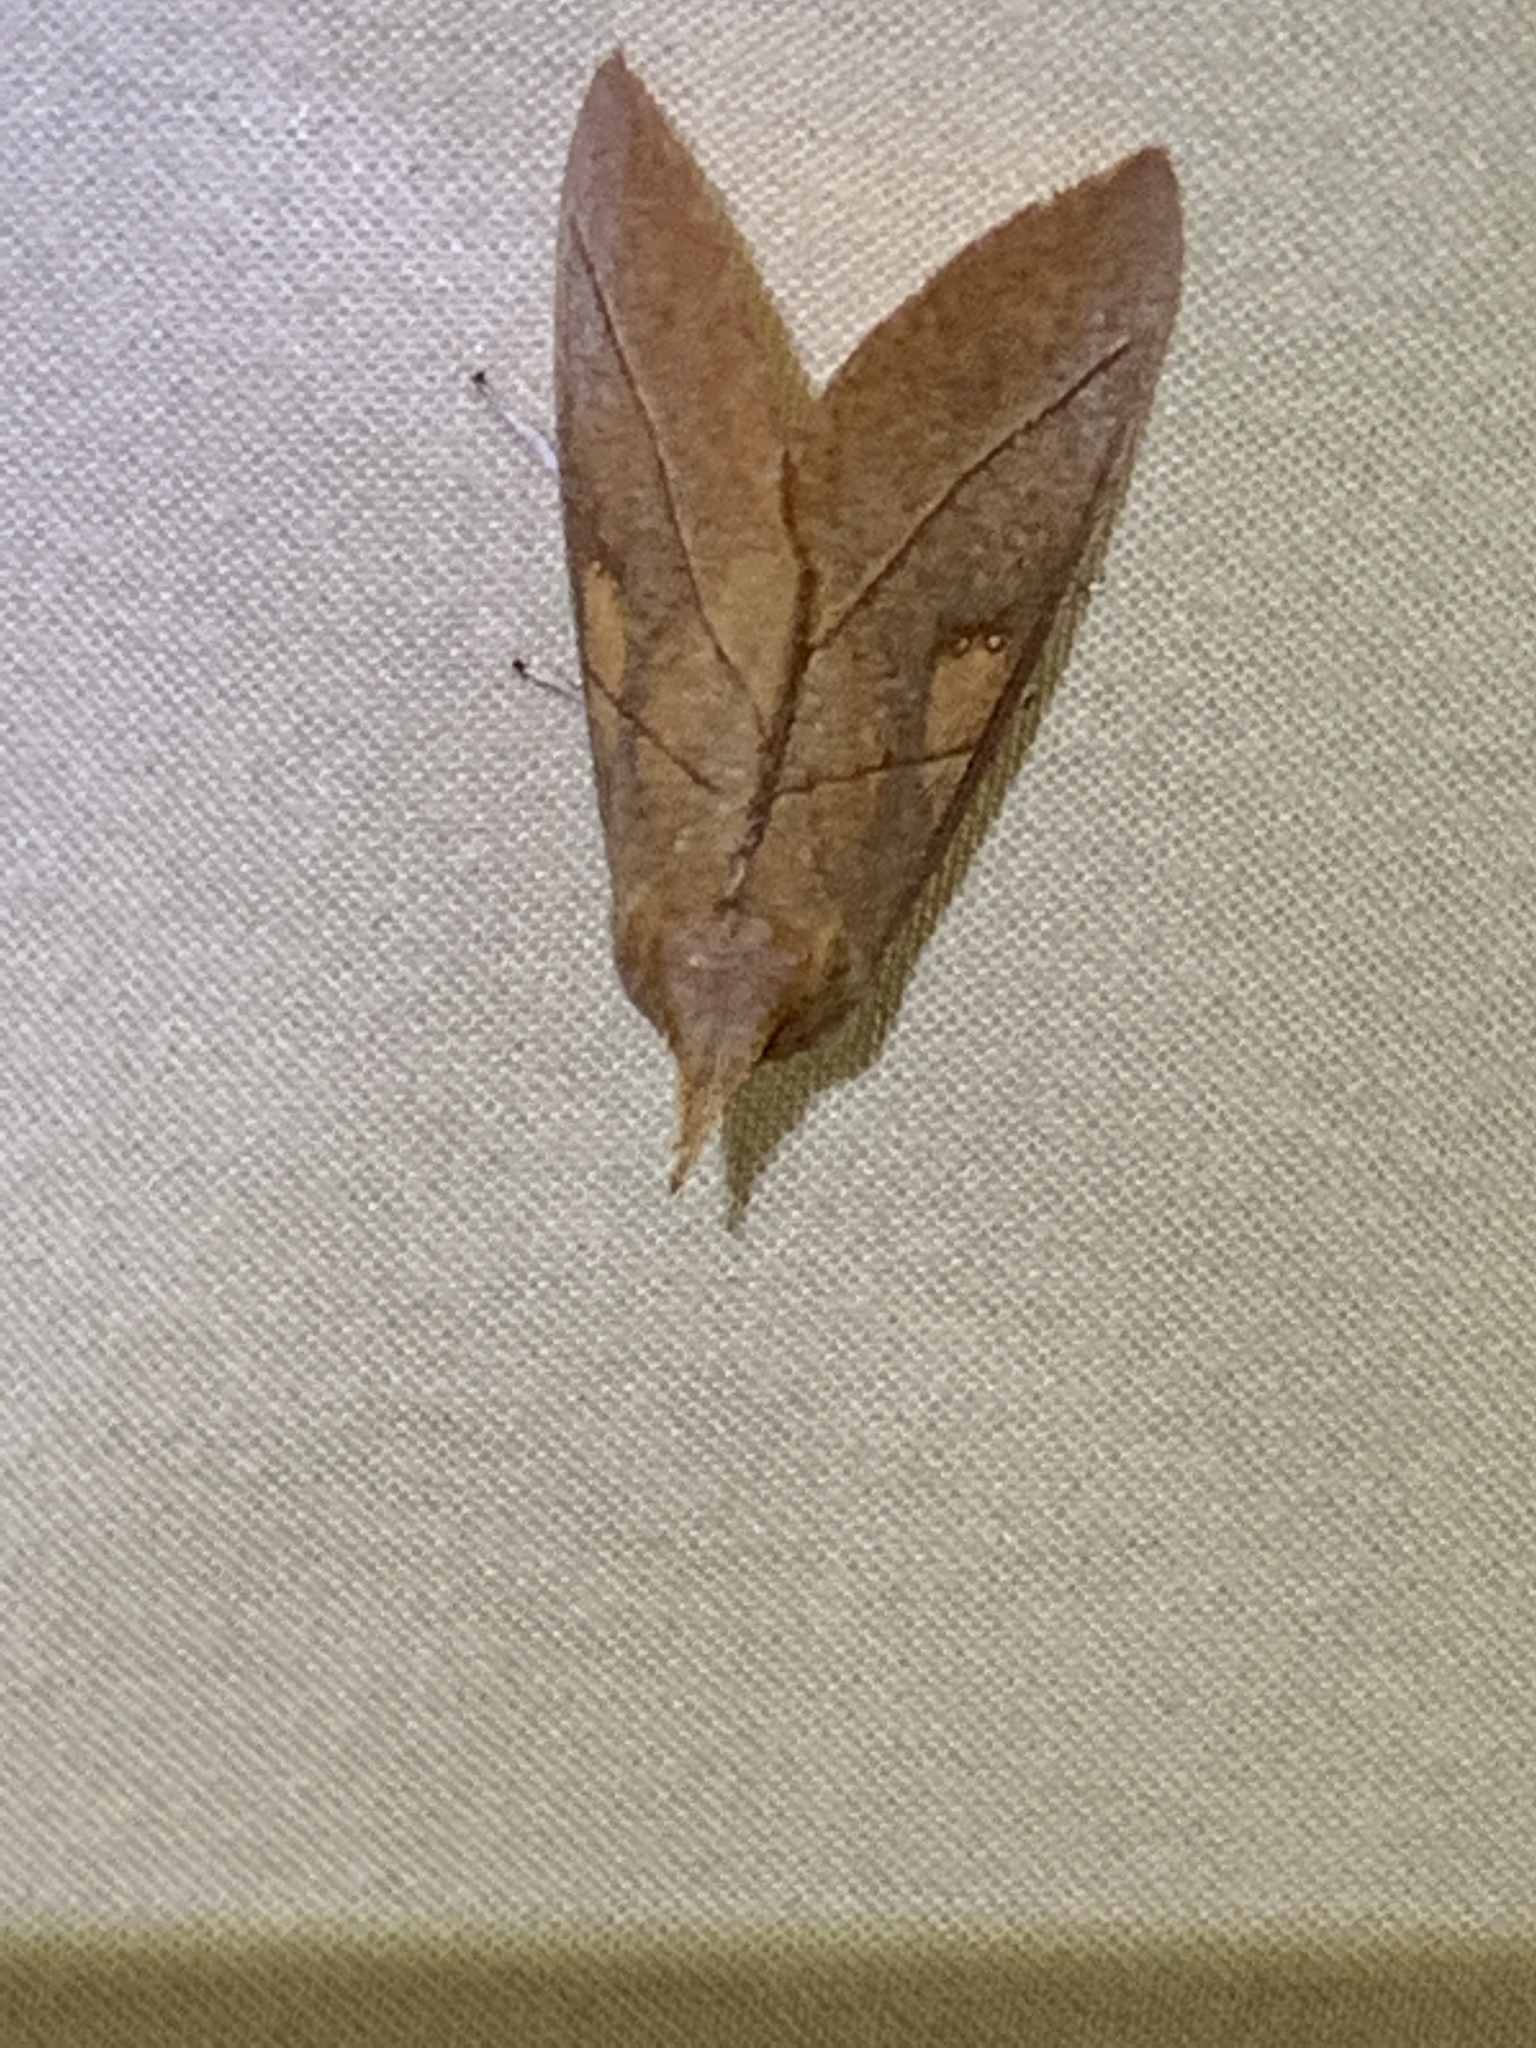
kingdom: Animalia
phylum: Arthropoda
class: Insecta
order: Lepidoptera
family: Notodontidae
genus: Nadata
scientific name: Nadata gibbosa
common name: White-dotted prominent
